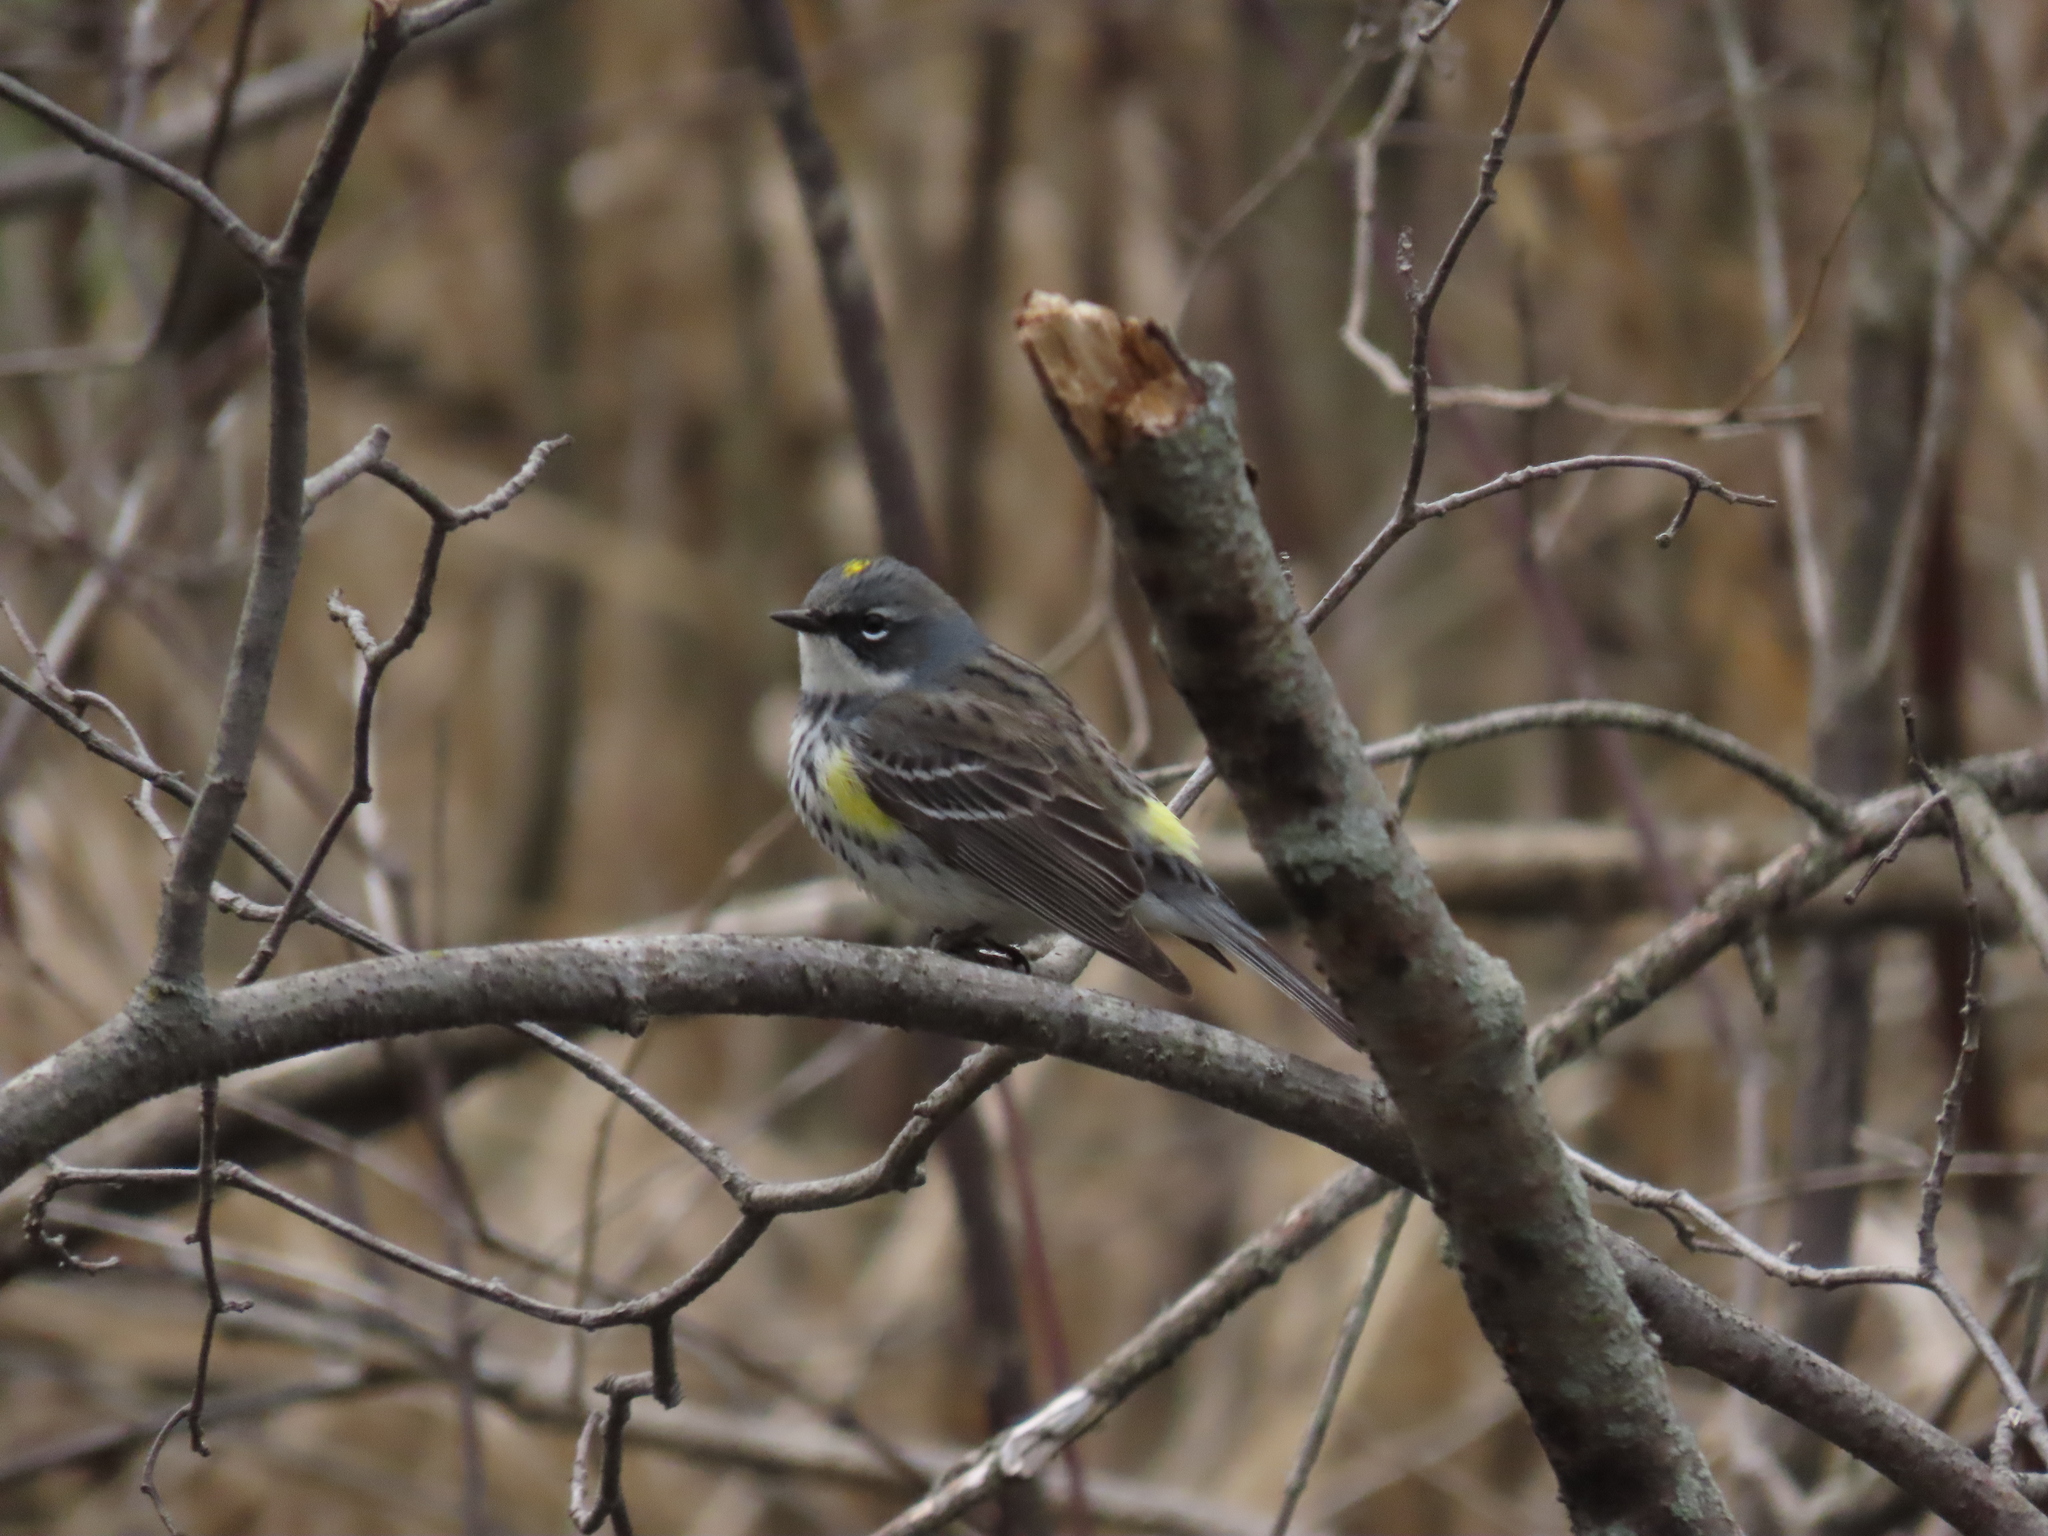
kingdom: Animalia
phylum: Chordata
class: Aves
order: Passeriformes
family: Parulidae
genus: Setophaga
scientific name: Setophaga coronata
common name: Myrtle warbler
